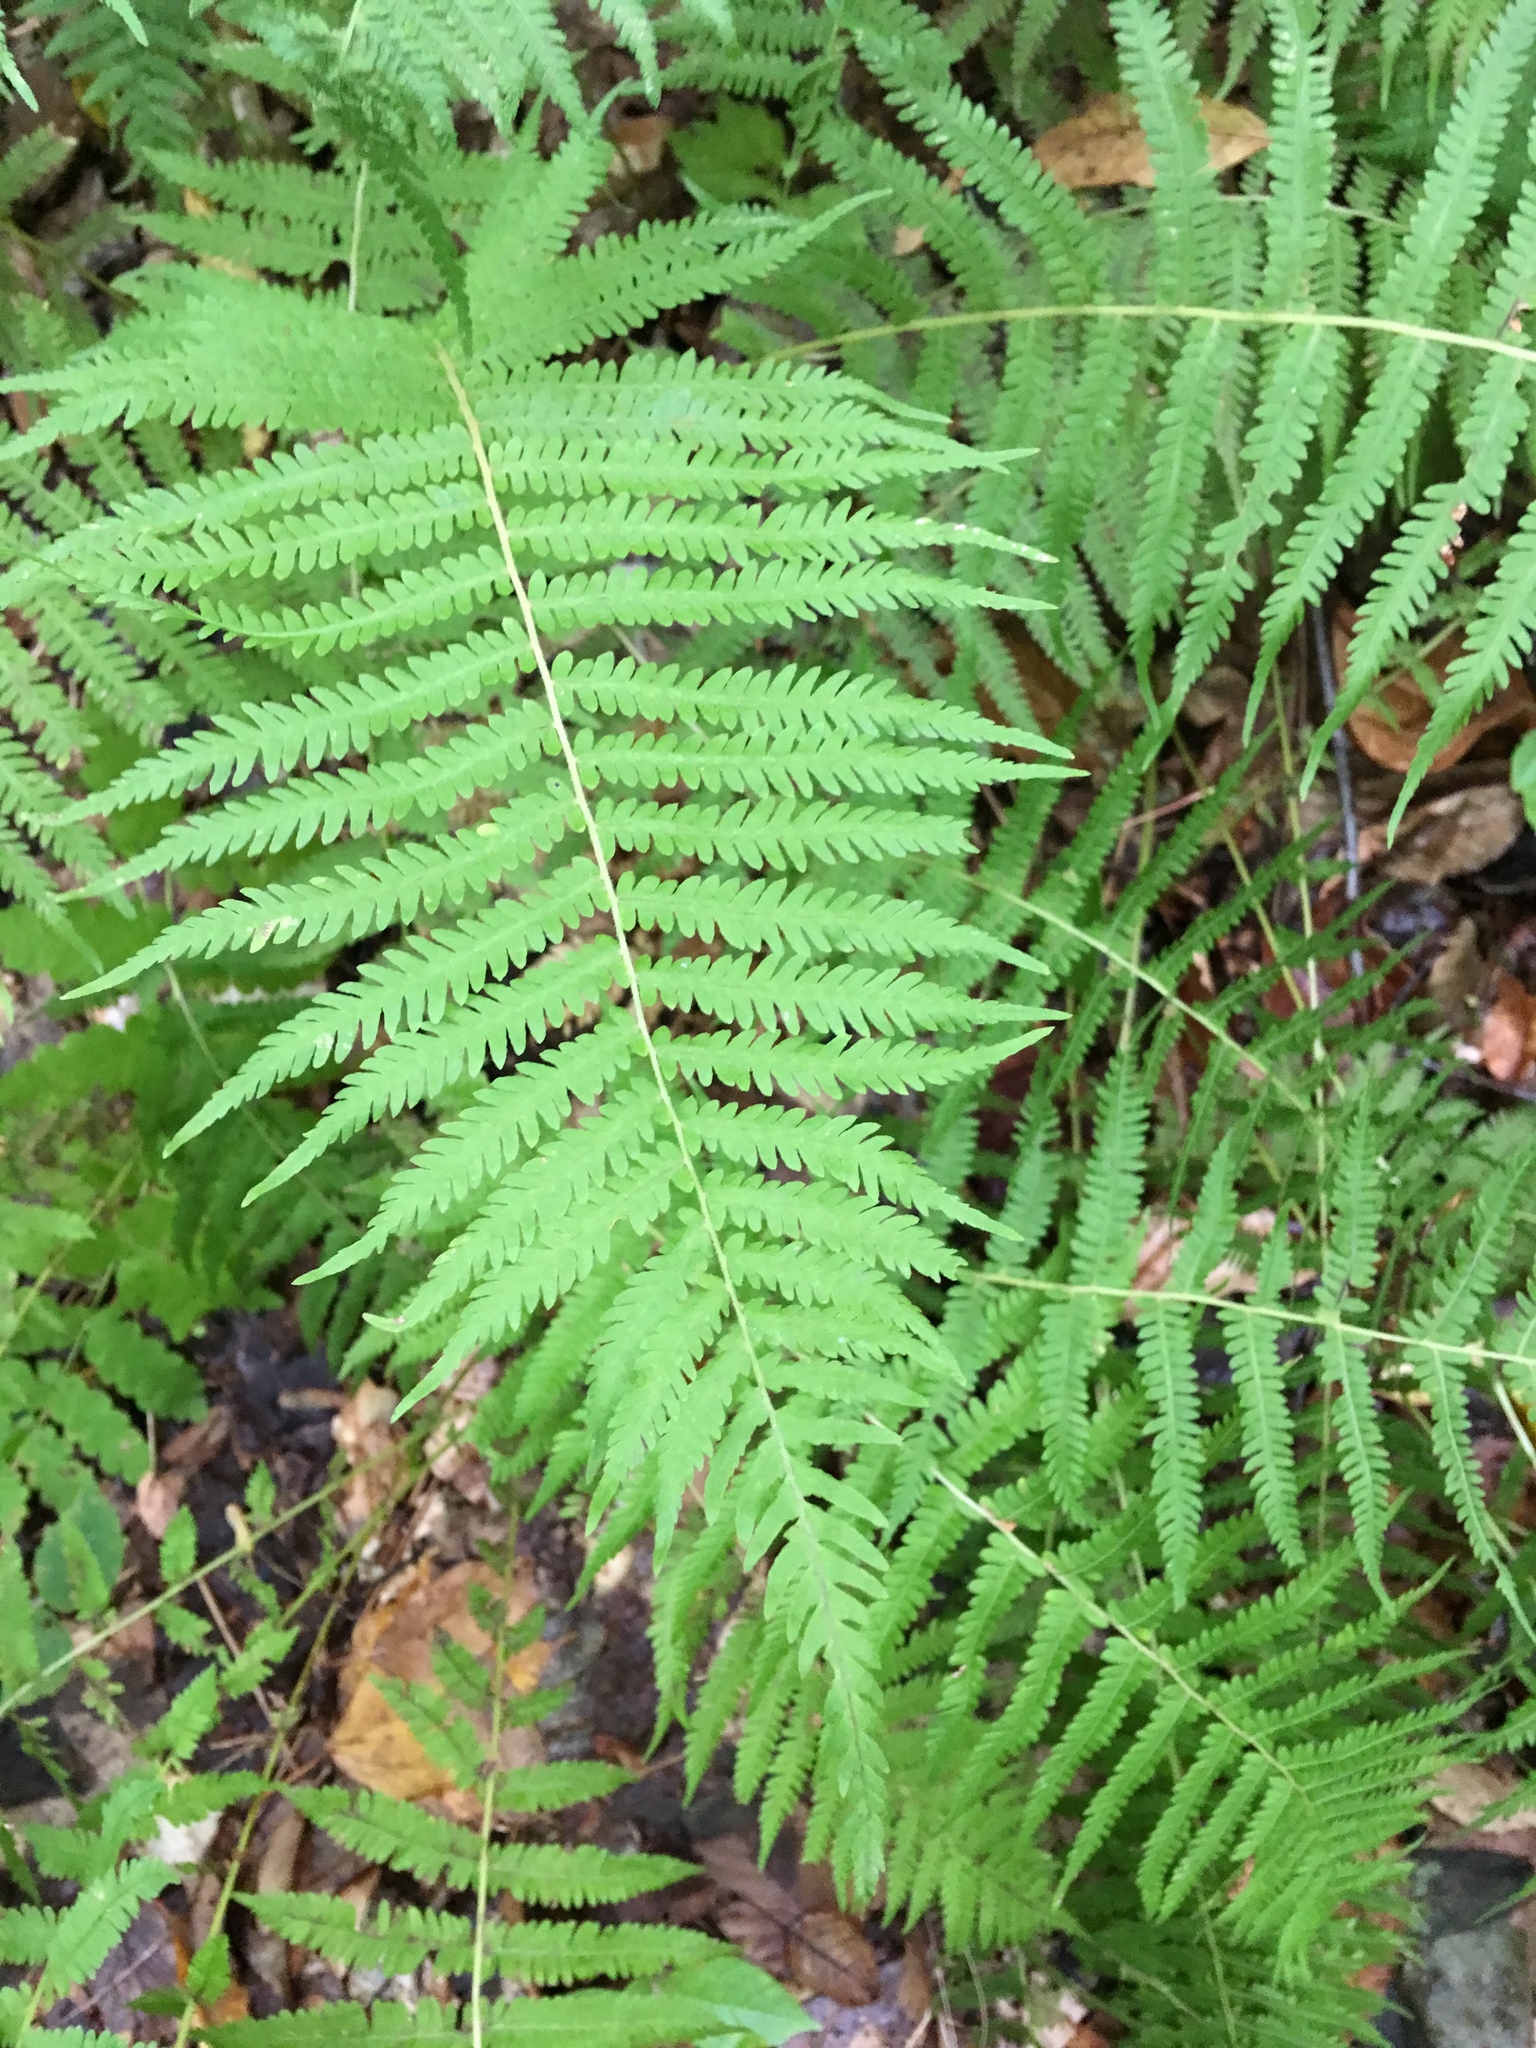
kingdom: Plantae
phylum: Tracheophyta
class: Polypodiopsida
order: Polypodiales
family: Thelypteridaceae
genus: Amauropelta
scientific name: Amauropelta noveboracensis
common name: New york fern
